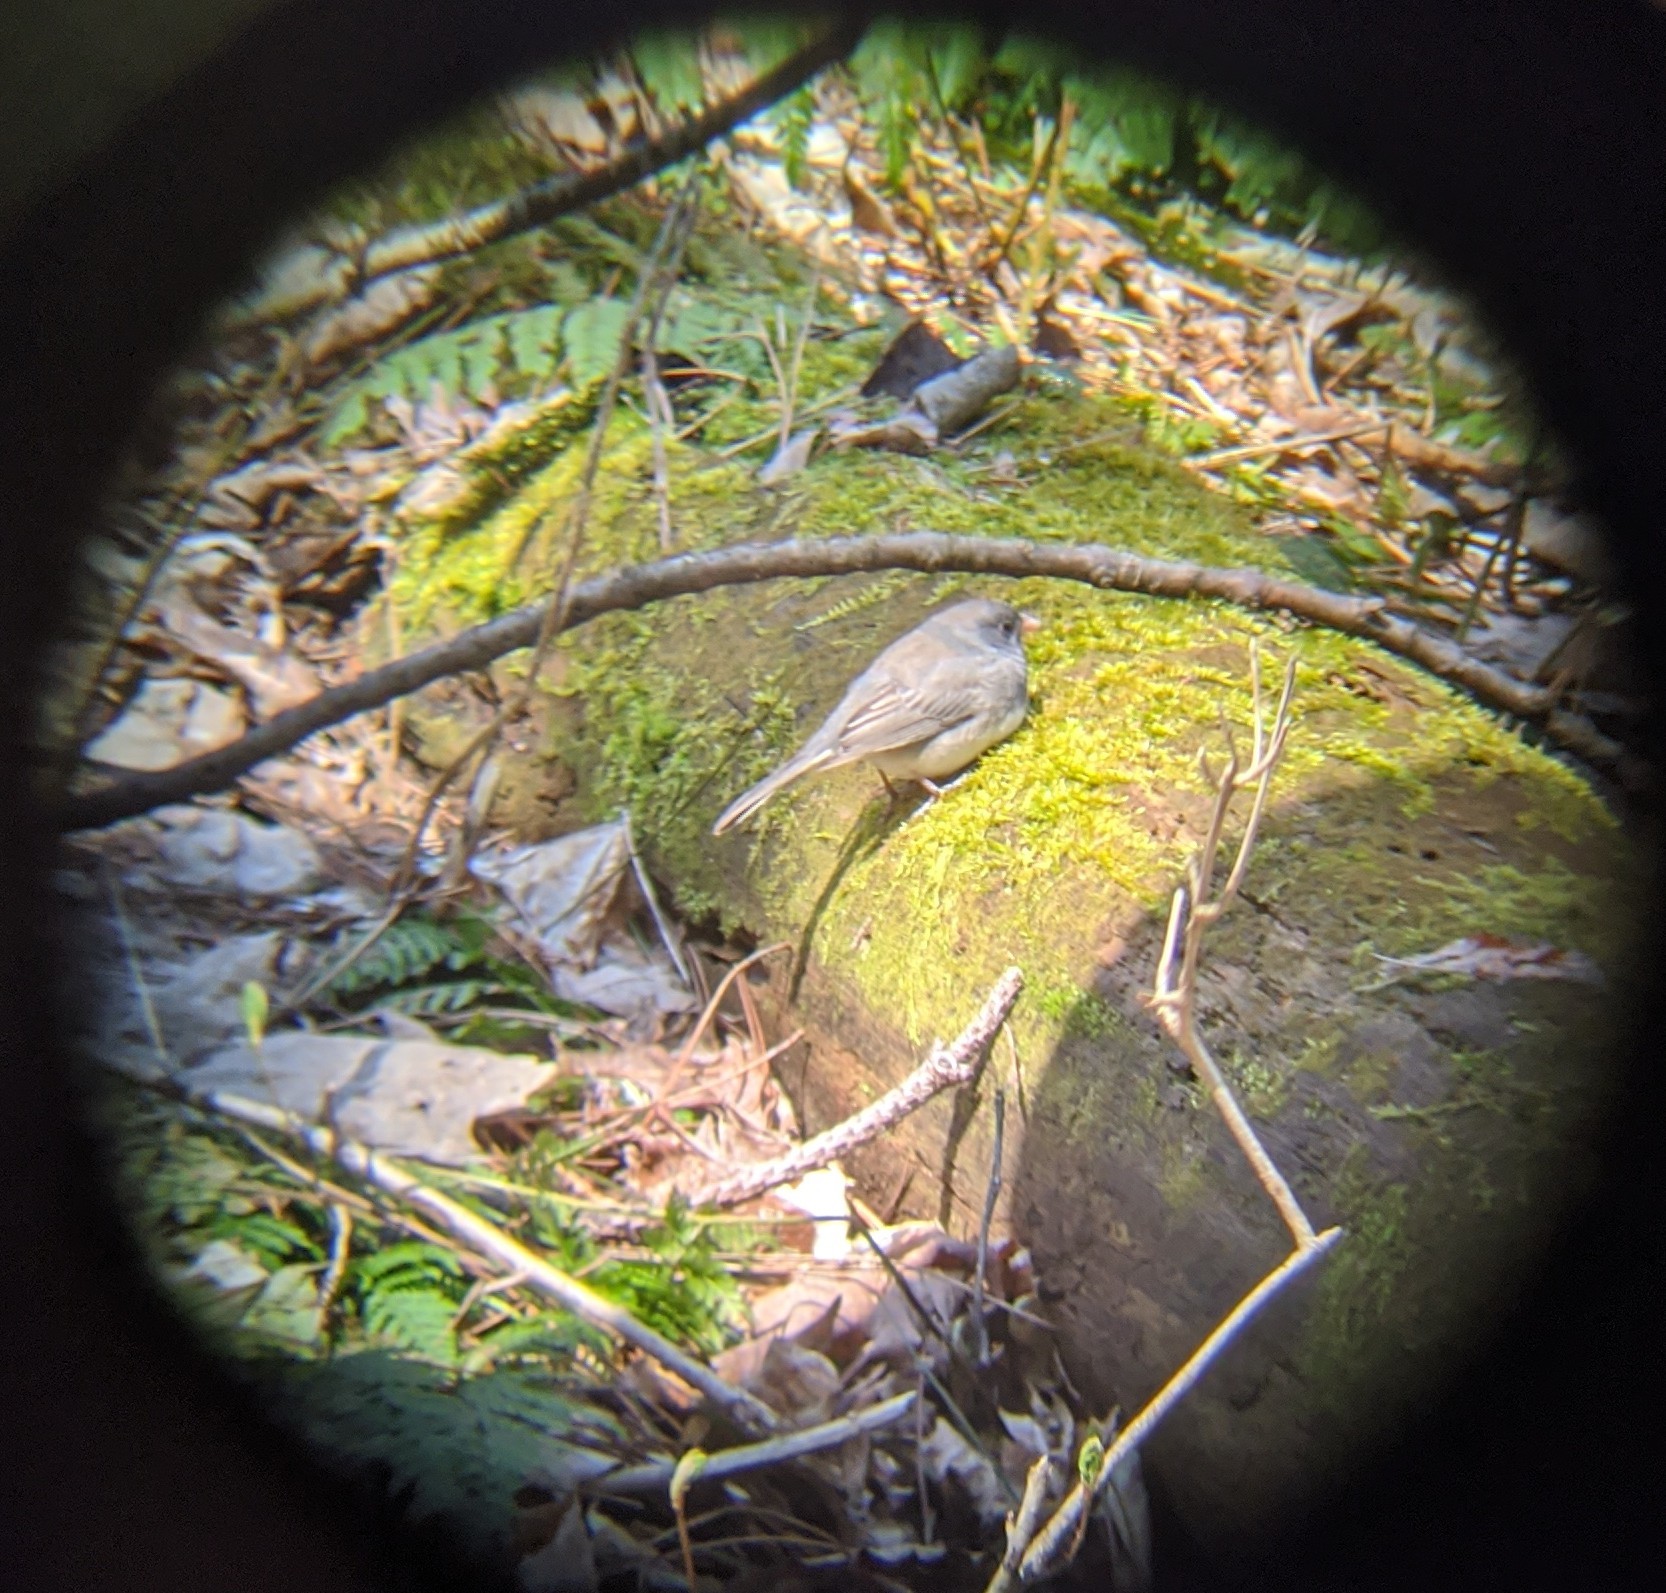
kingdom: Animalia
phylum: Chordata
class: Aves
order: Passeriformes
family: Passerellidae
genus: Junco
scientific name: Junco hyemalis
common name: Dark-eyed junco
